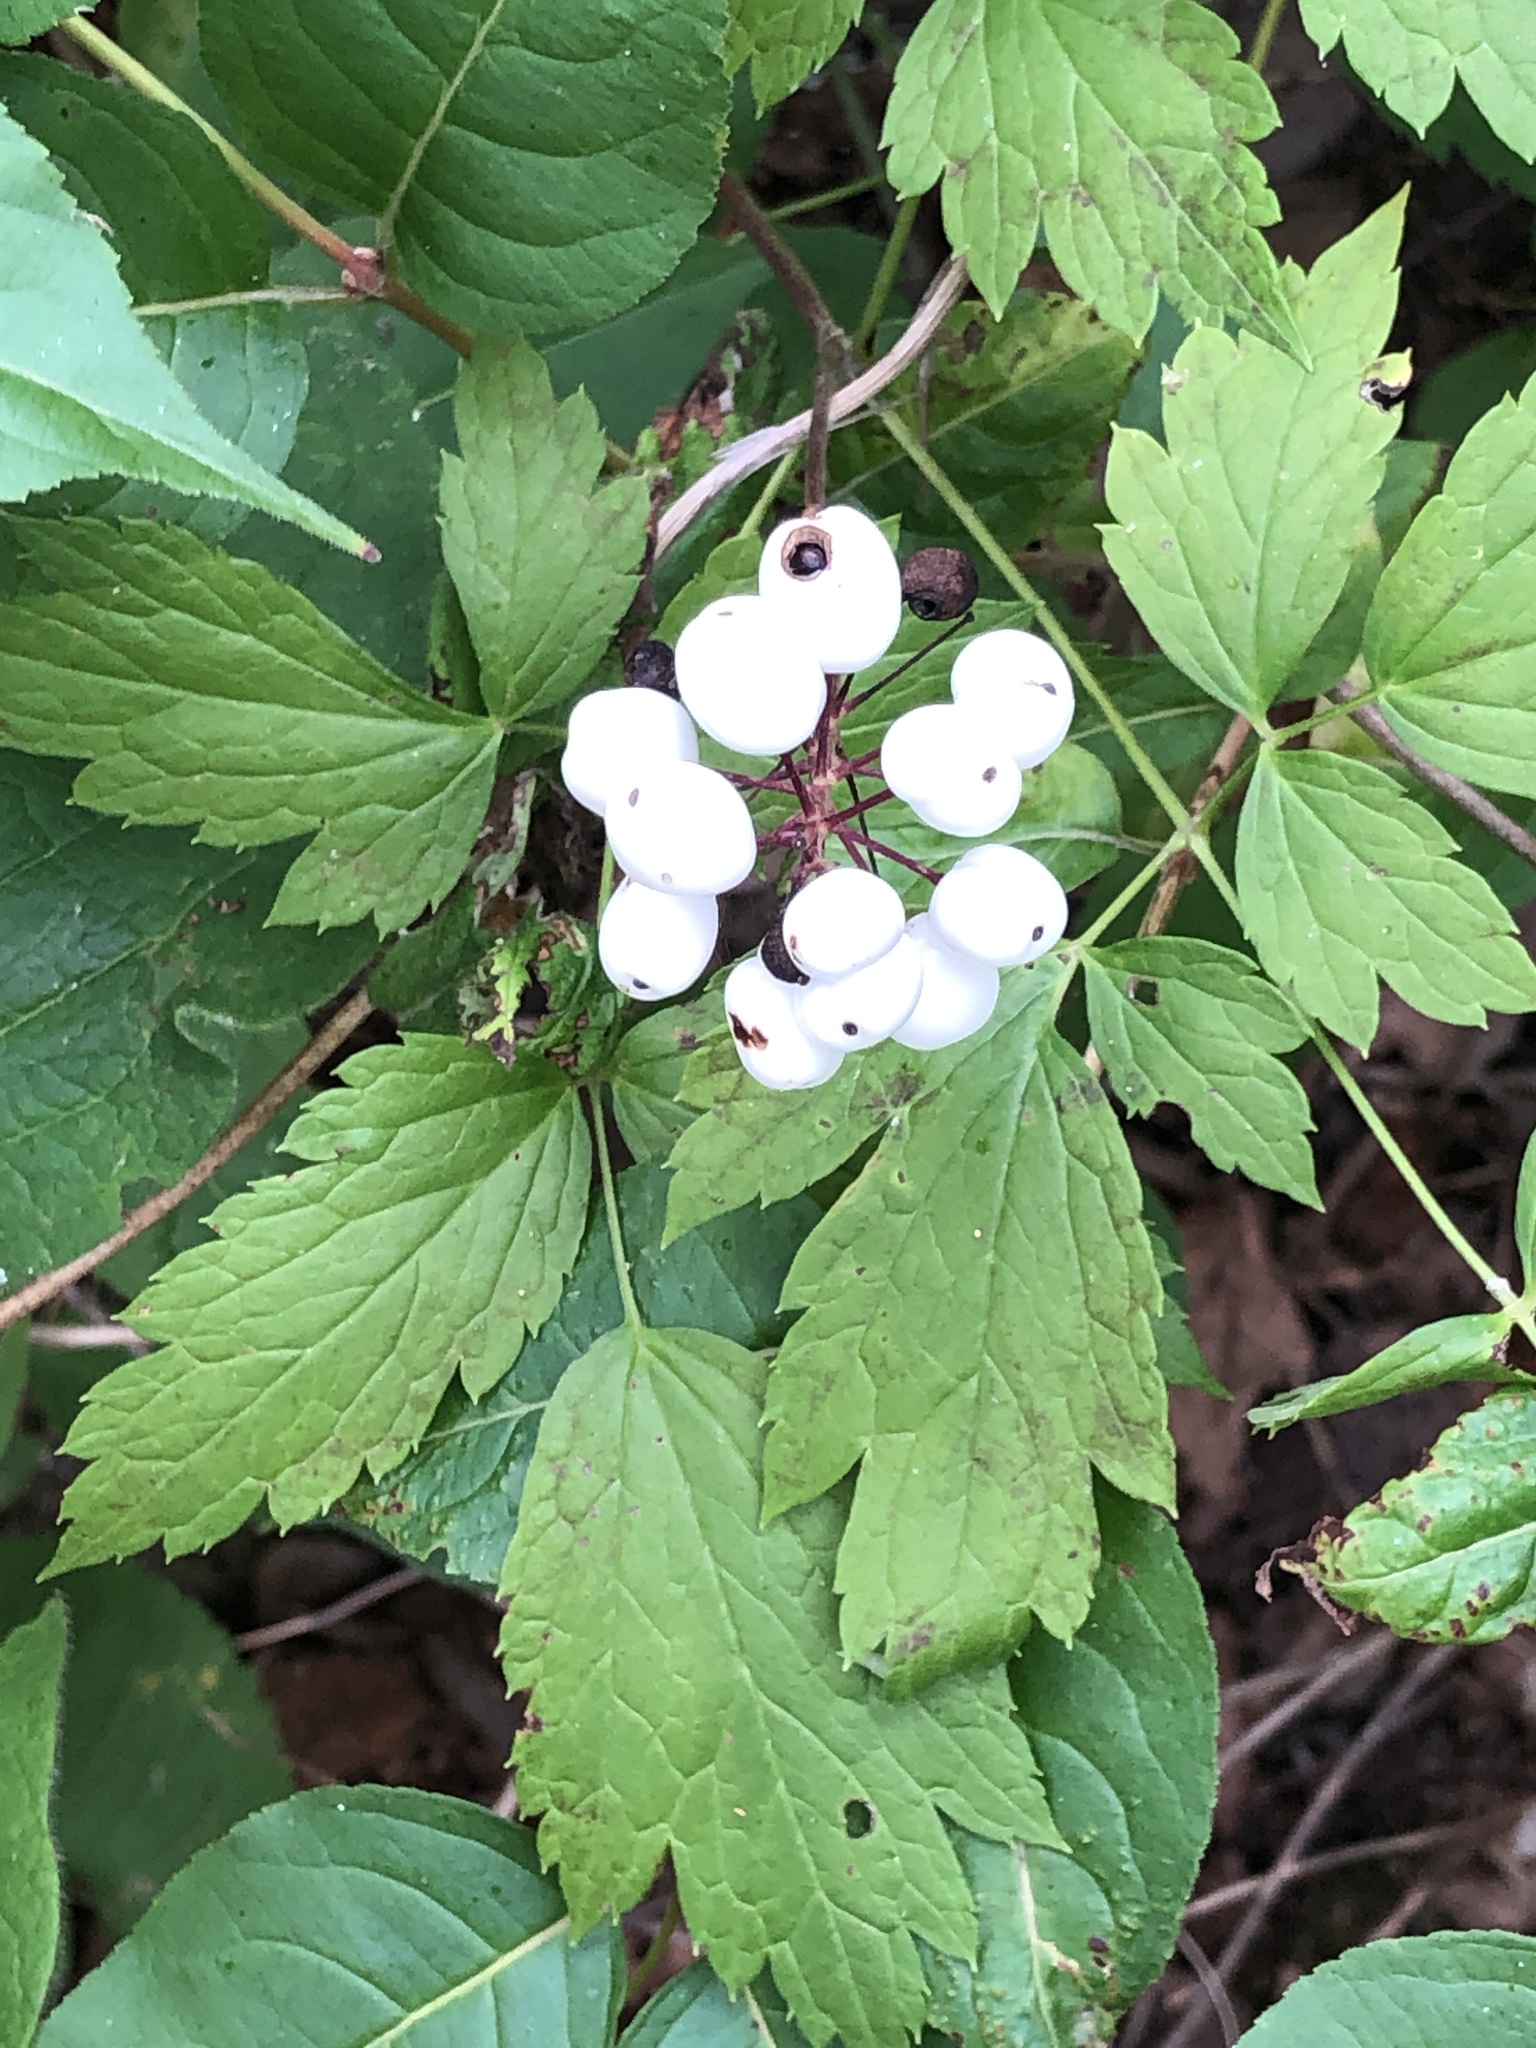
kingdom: Plantae
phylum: Tracheophyta
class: Magnoliopsida
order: Ranunculales
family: Ranunculaceae
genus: Actaea
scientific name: Actaea rubra
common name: Red baneberry
